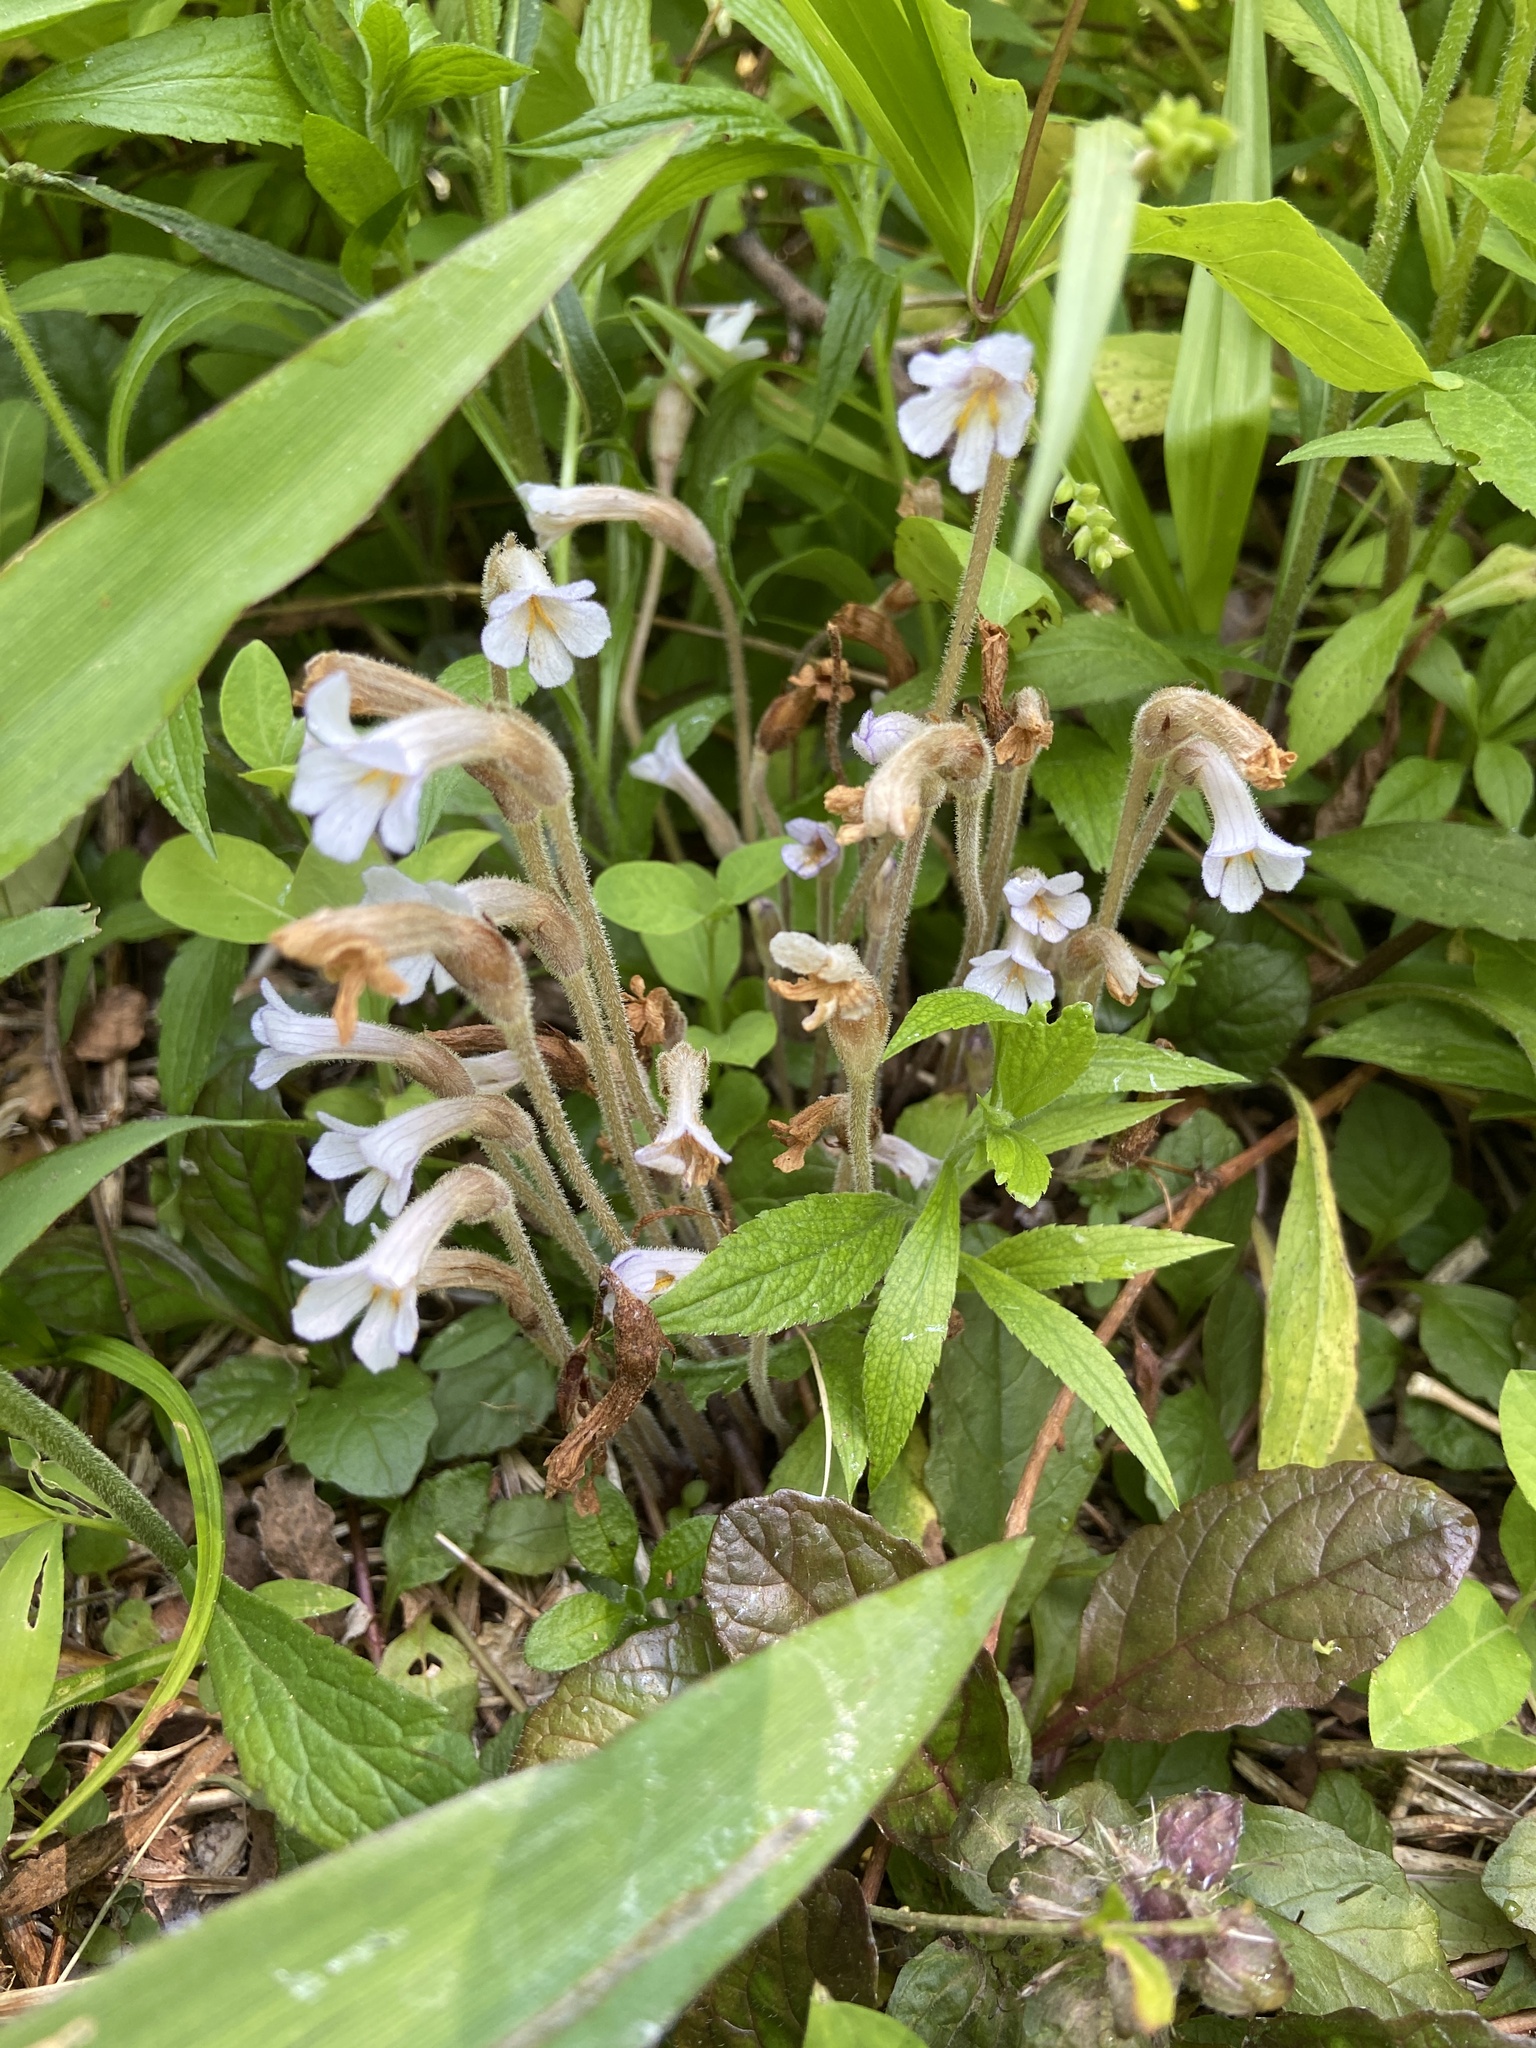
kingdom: Plantae
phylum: Tracheophyta
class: Magnoliopsida
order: Lamiales
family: Orobanchaceae
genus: Aphyllon
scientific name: Aphyllon uniflorum
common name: One-flowered broomrape
